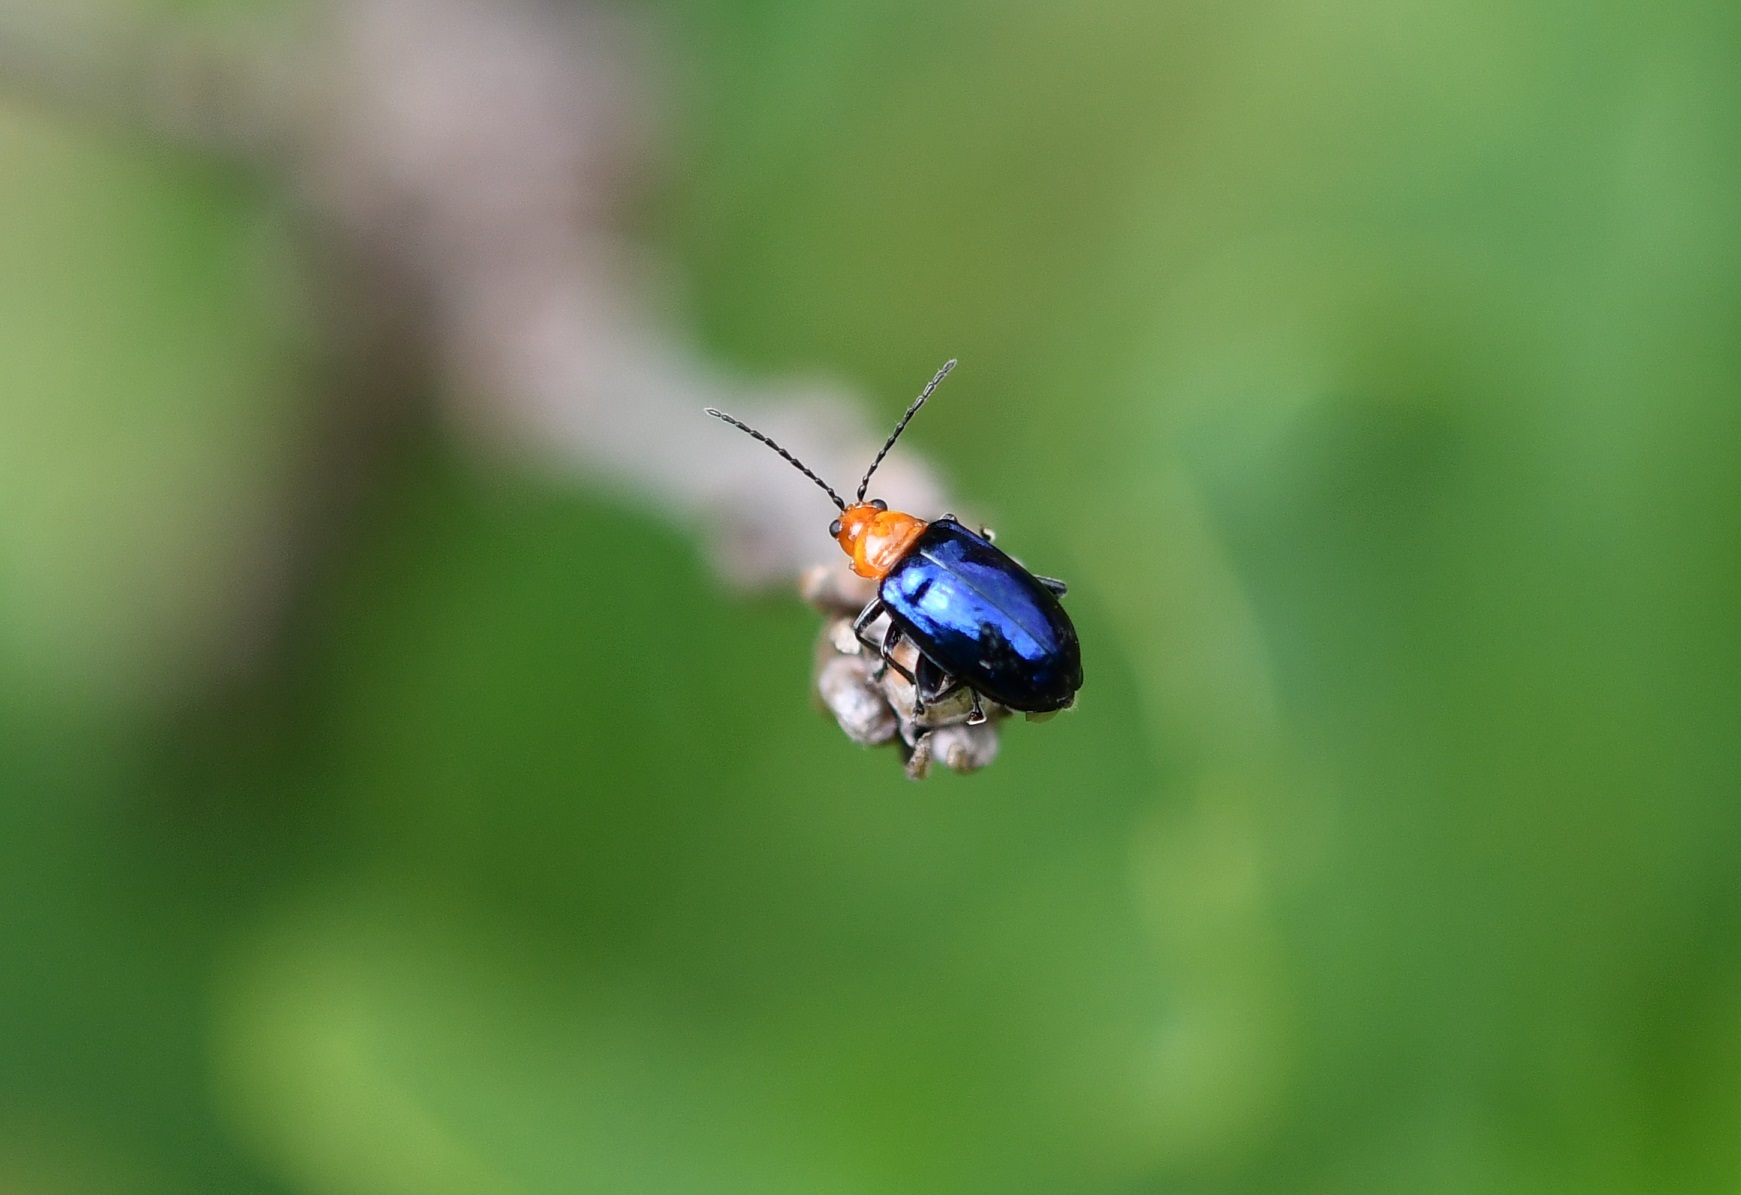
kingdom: Animalia
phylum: Arthropoda
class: Insecta
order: Coleoptera
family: Chrysomelidae
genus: Diphaulaca
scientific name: Diphaulaca wagneri
